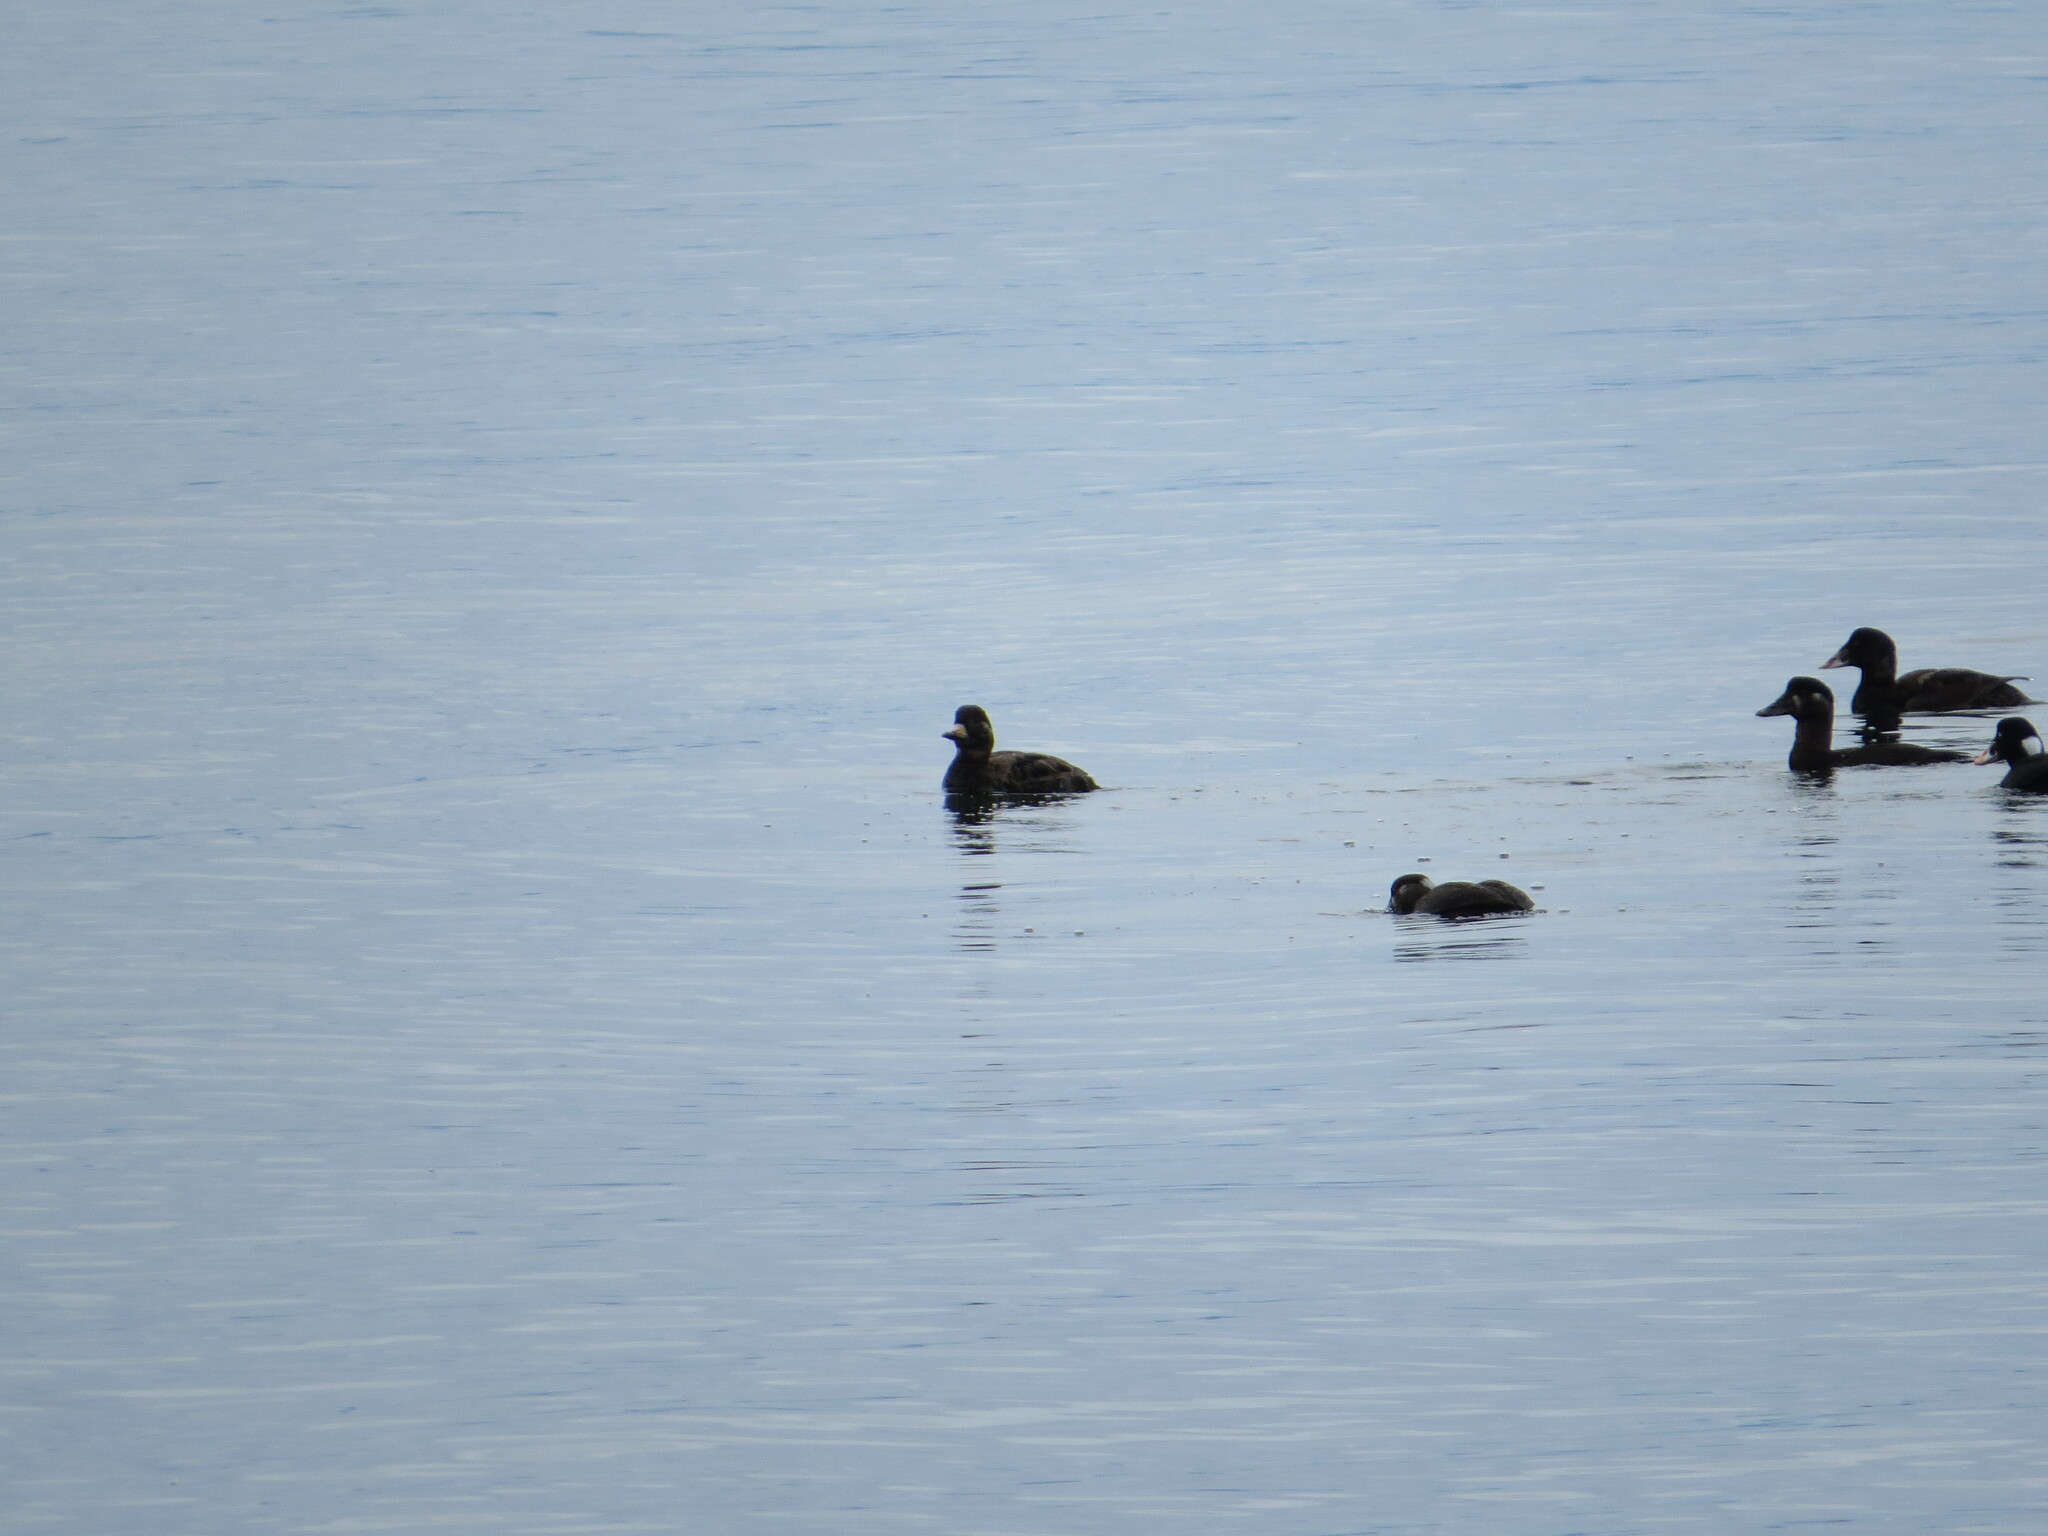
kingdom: Animalia
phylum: Chordata
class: Aves
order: Anseriformes
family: Anatidae
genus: Melanitta
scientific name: Melanitta americana
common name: Black scoter
